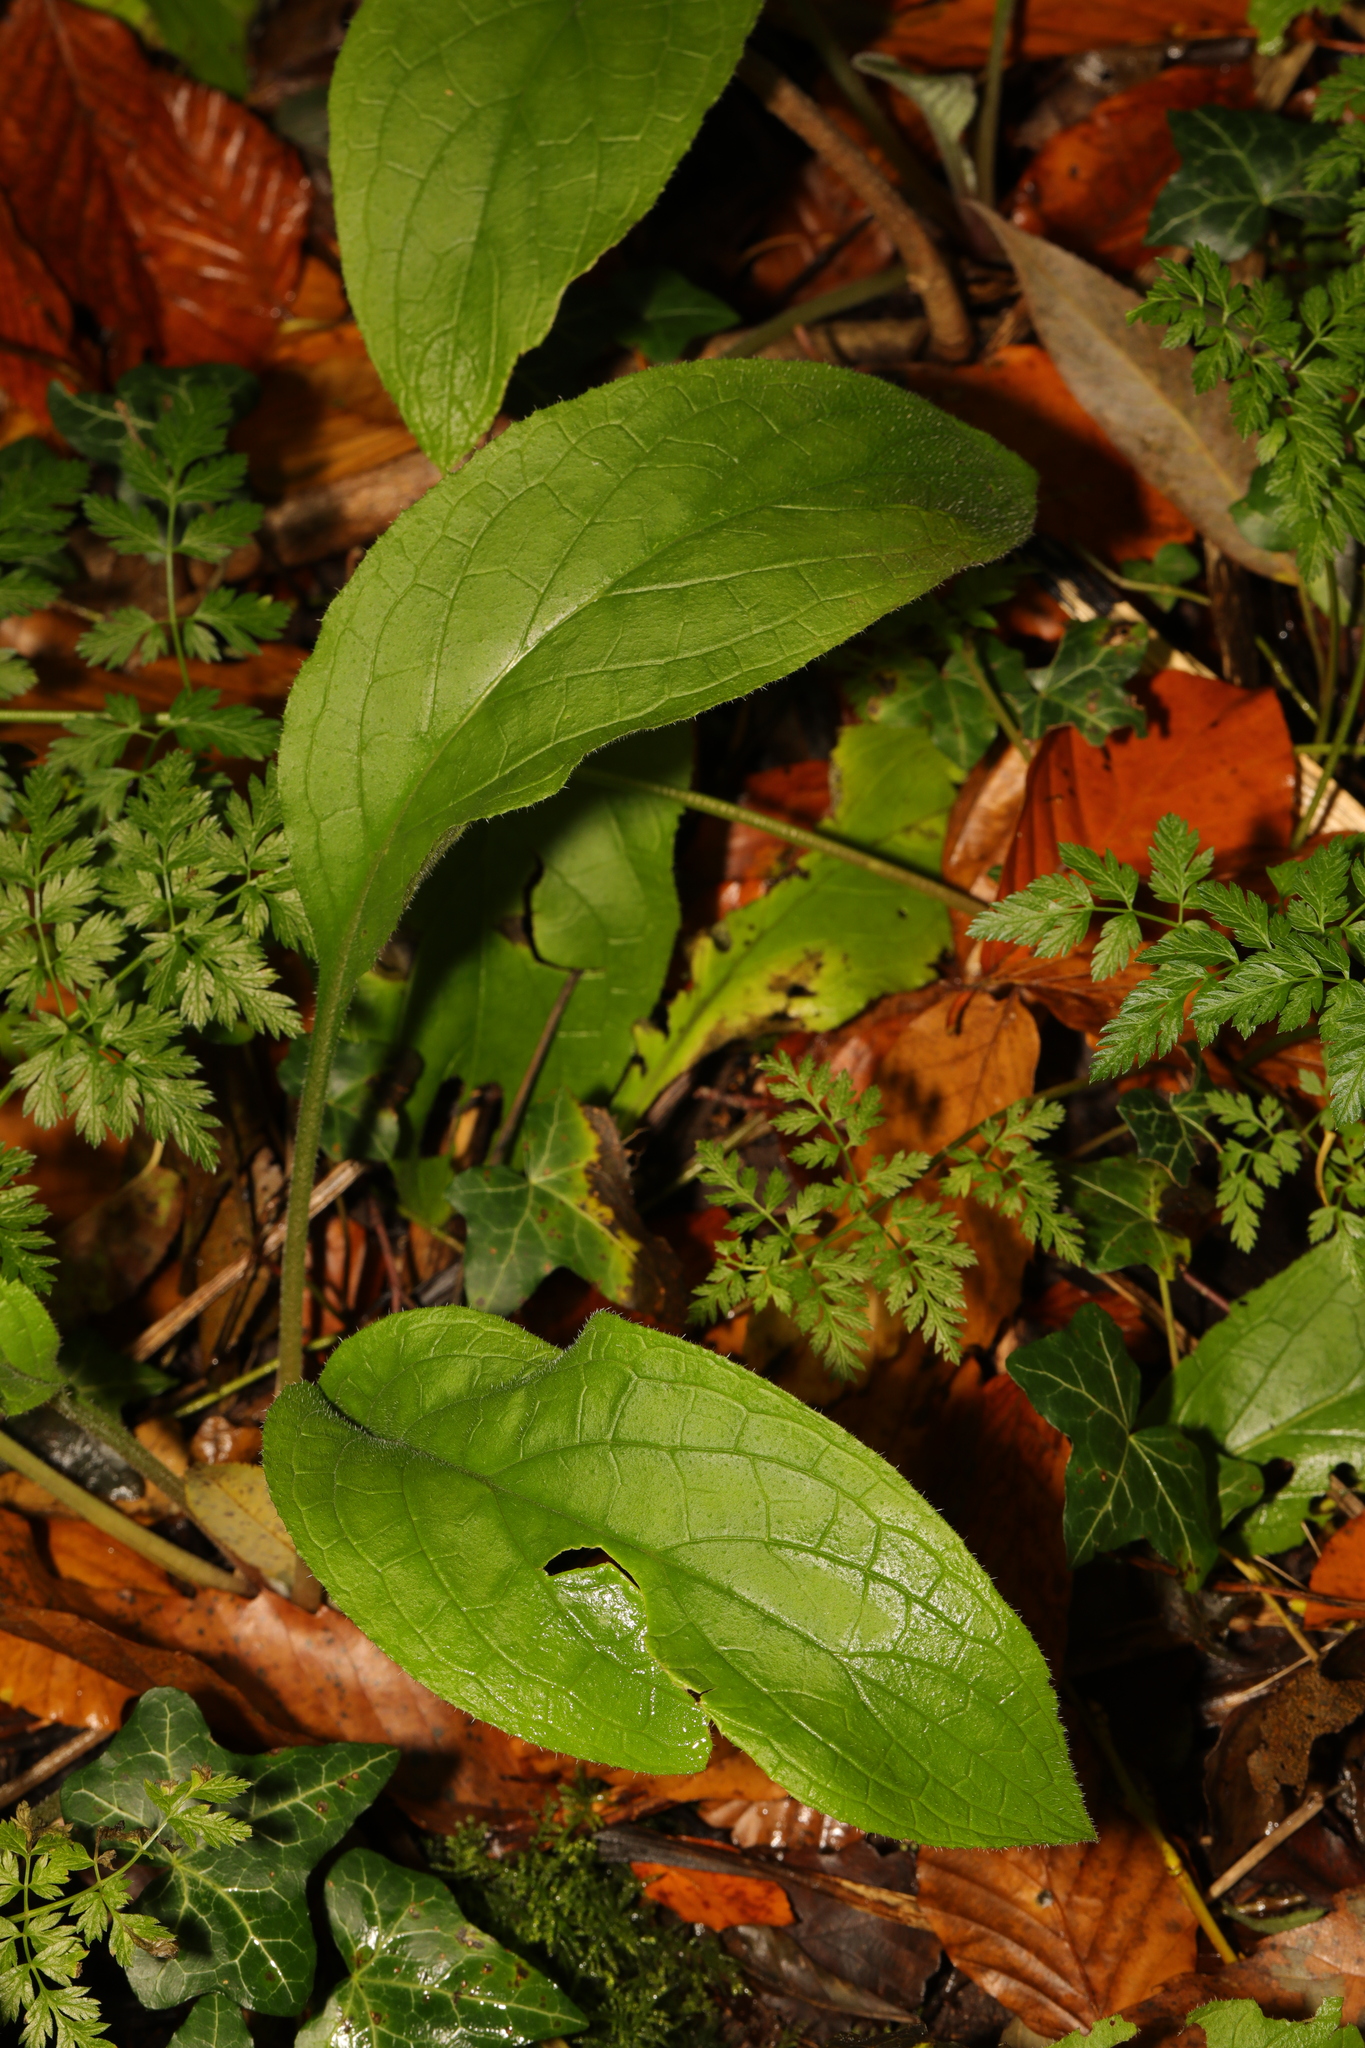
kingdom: Plantae
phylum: Tracheophyta
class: Magnoliopsida
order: Lamiales
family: Plantaginaceae
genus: Digitalis
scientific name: Digitalis purpurea
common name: Foxglove
